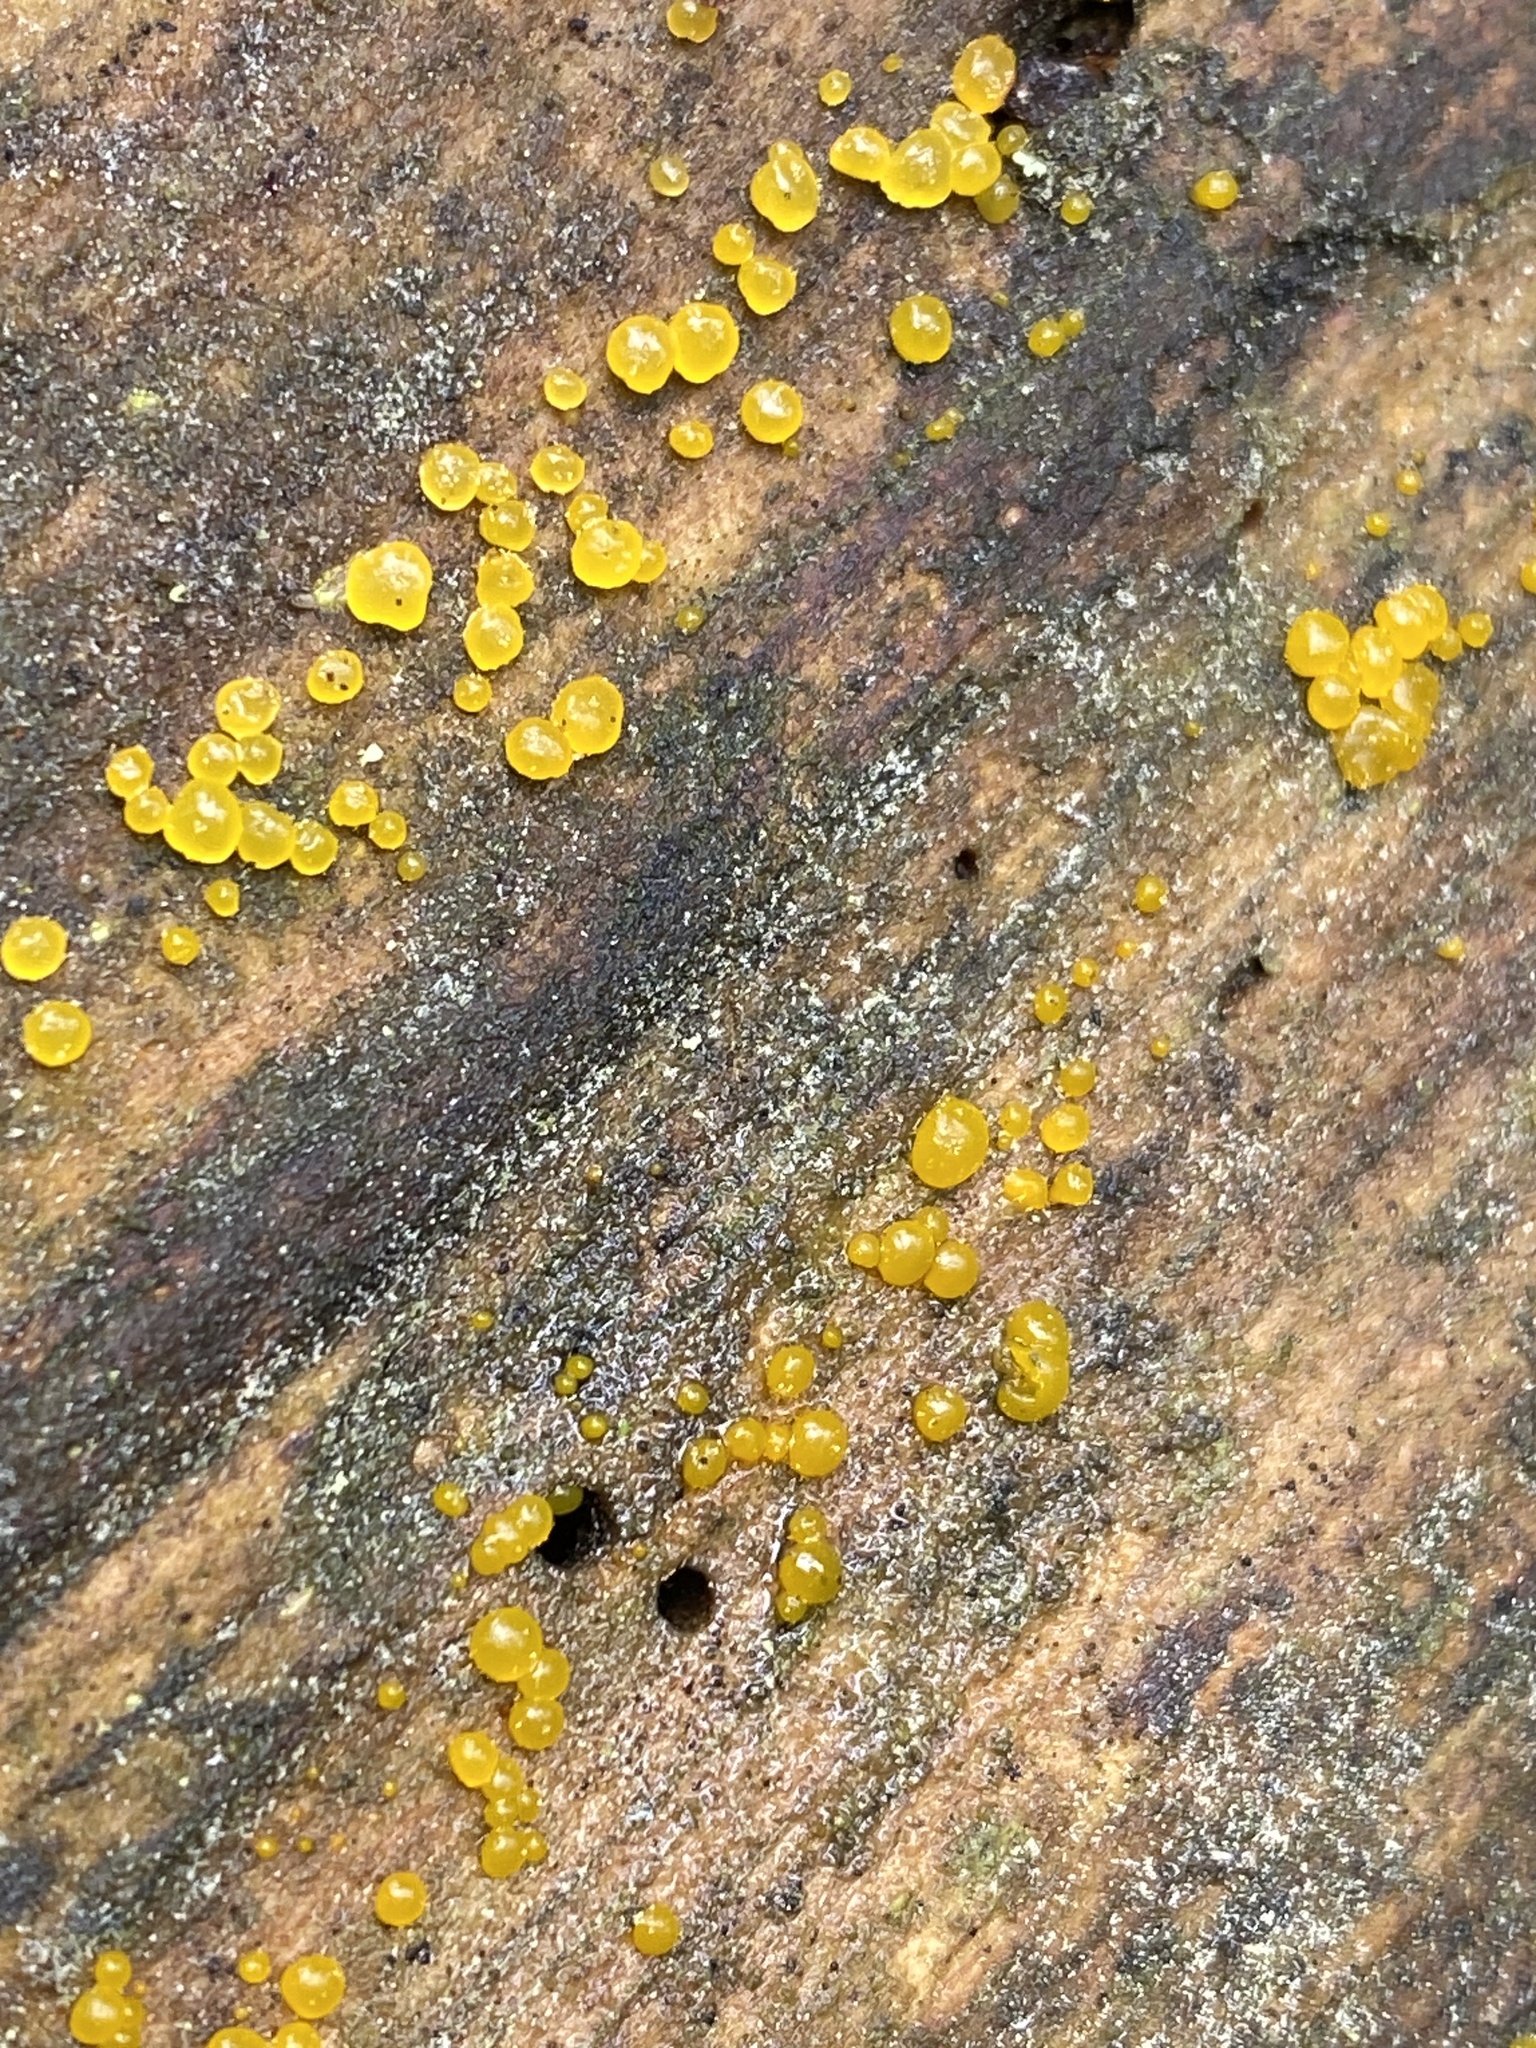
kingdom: Fungi
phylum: Basidiomycota
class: Dacrymycetes
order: Dacrymycetales
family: Dacrymycetaceae
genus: Dacrymyces
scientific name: Dacrymyces stillatus
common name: Common jelly spot
